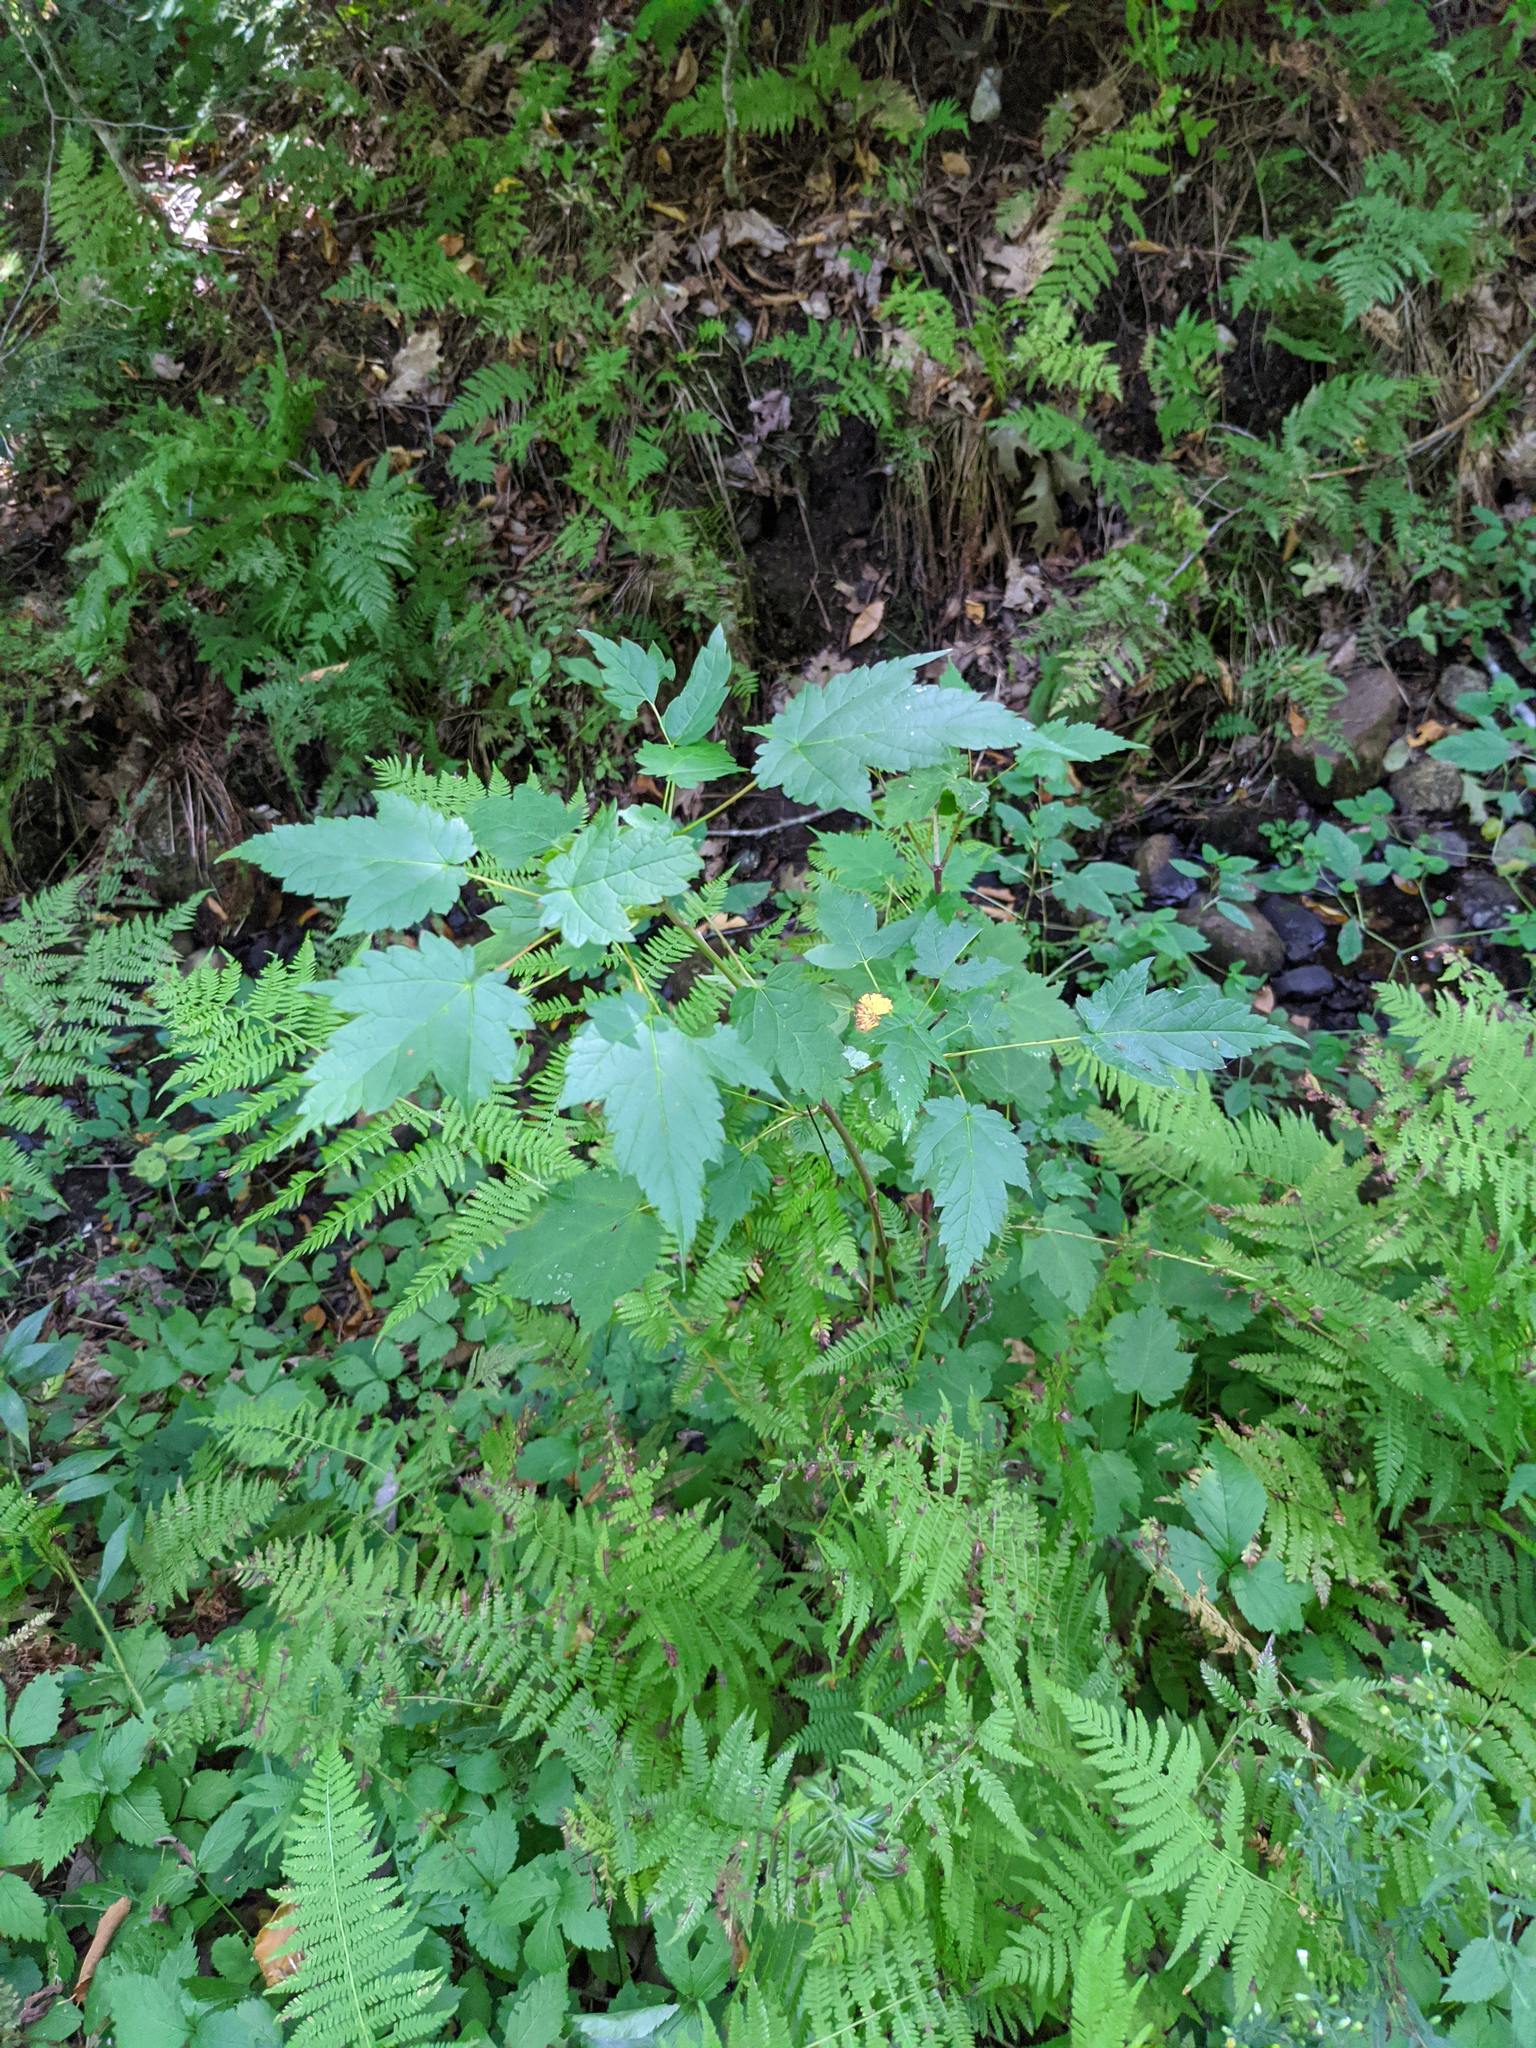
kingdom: Plantae
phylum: Tracheophyta
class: Magnoliopsida
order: Sapindales
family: Sapindaceae
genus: Acer
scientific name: Acer spicatum
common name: Mountain maple
